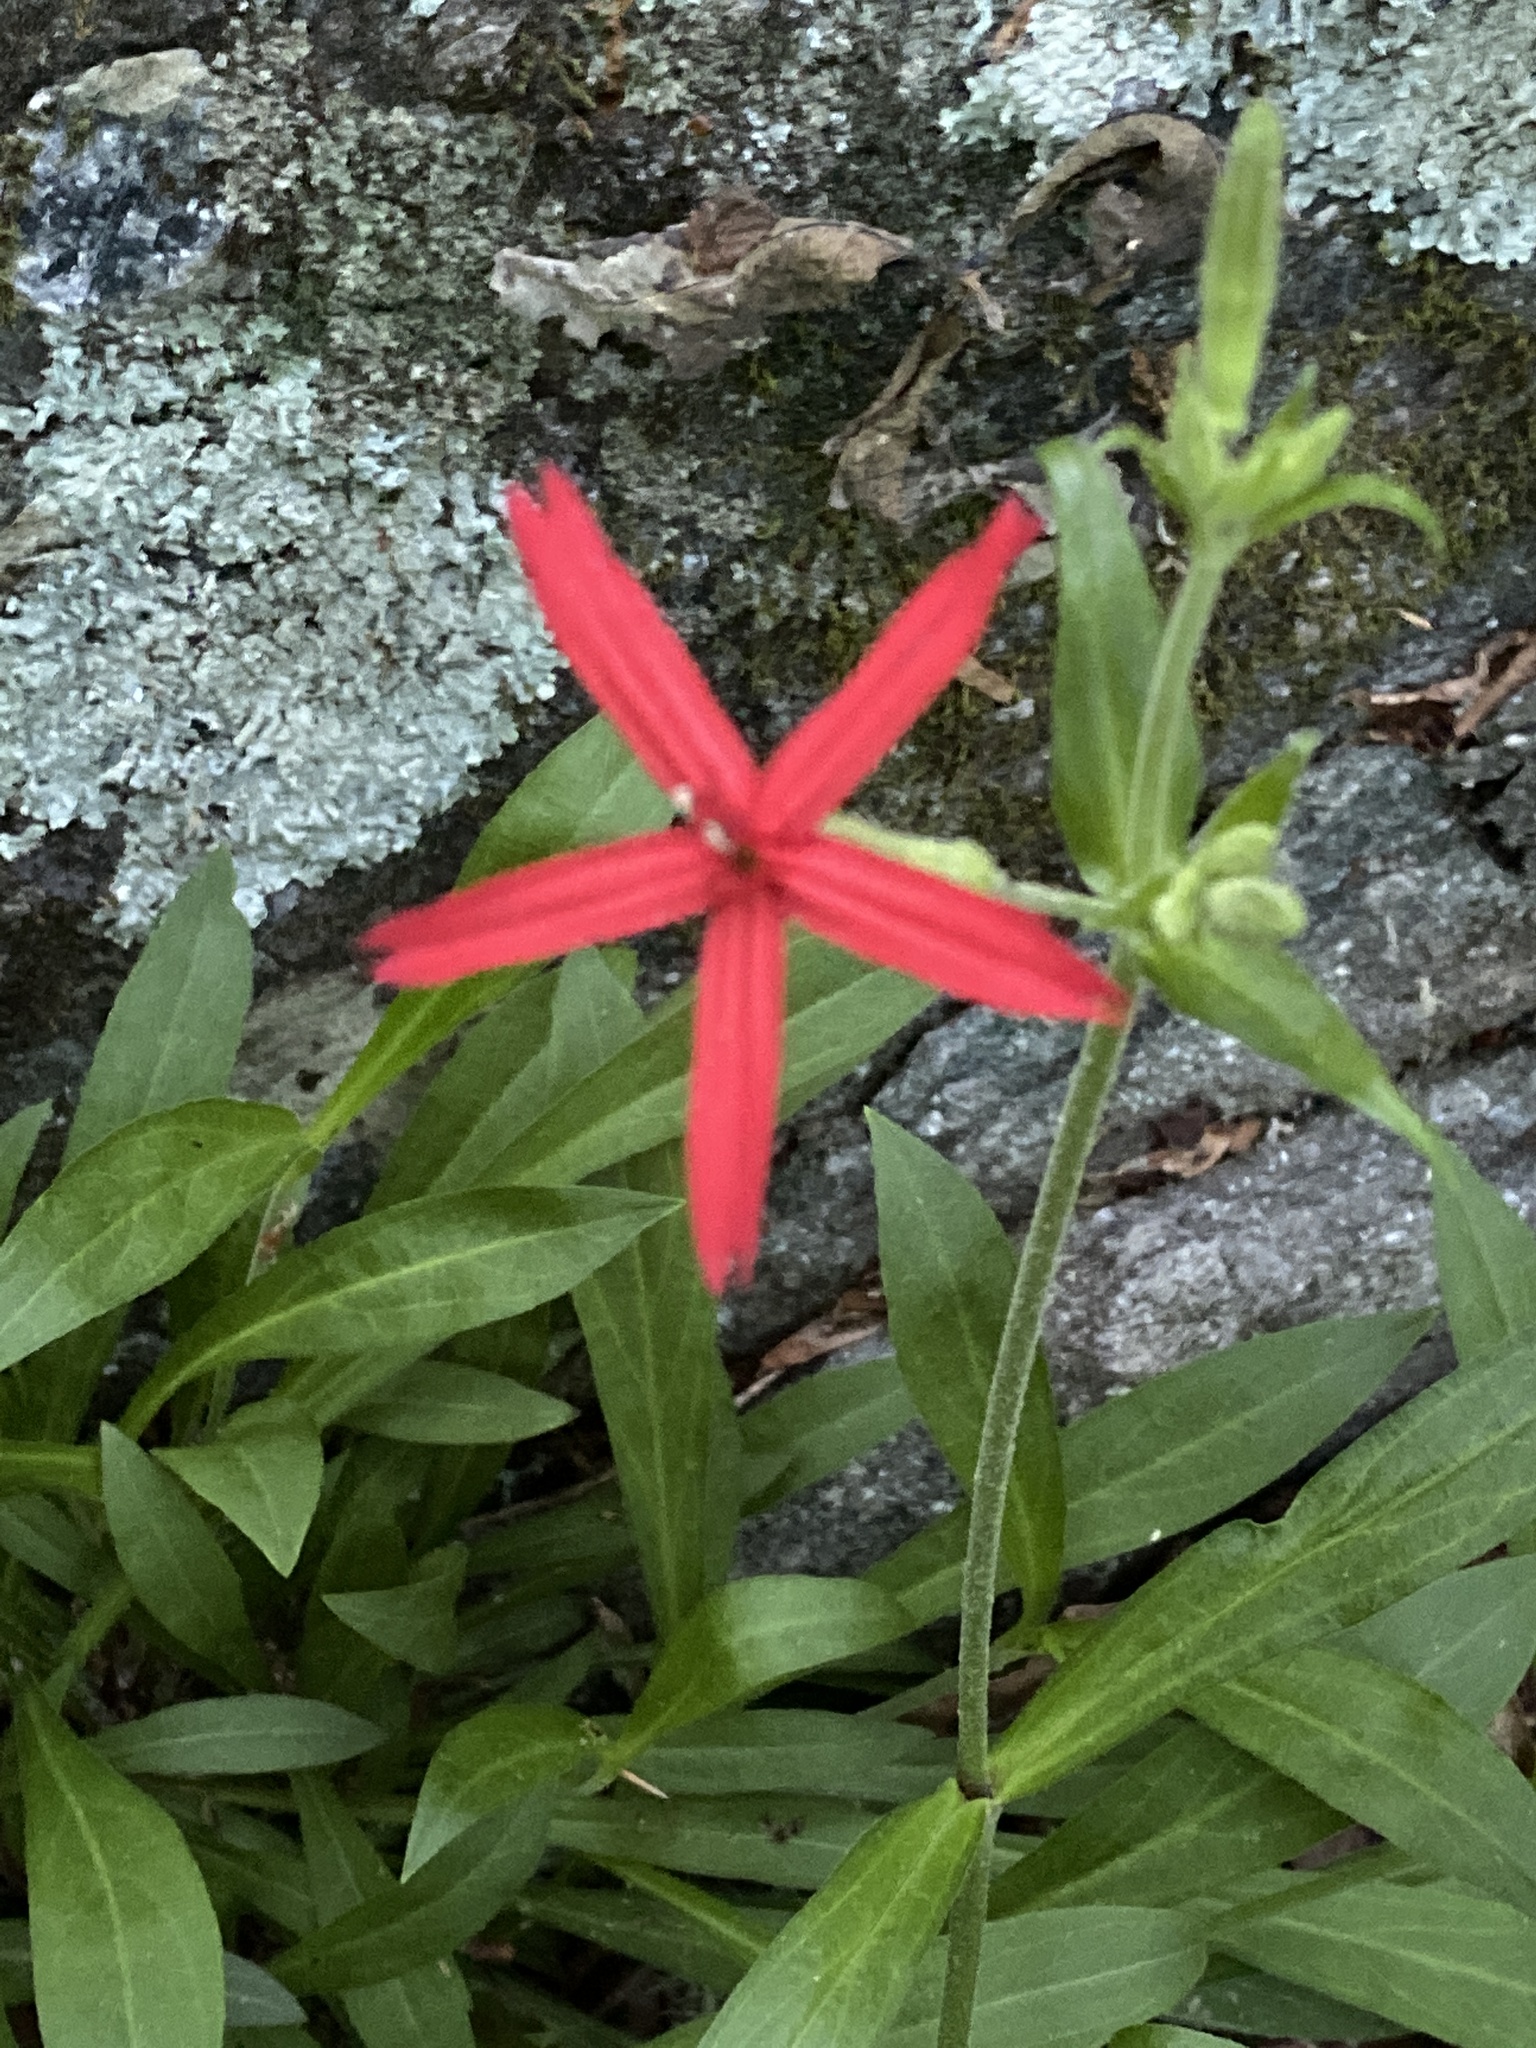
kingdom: Plantae
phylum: Tracheophyta
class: Magnoliopsida
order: Caryophyllales
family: Caryophyllaceae
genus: Silene
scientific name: Silene virginica
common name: Fire-pink
